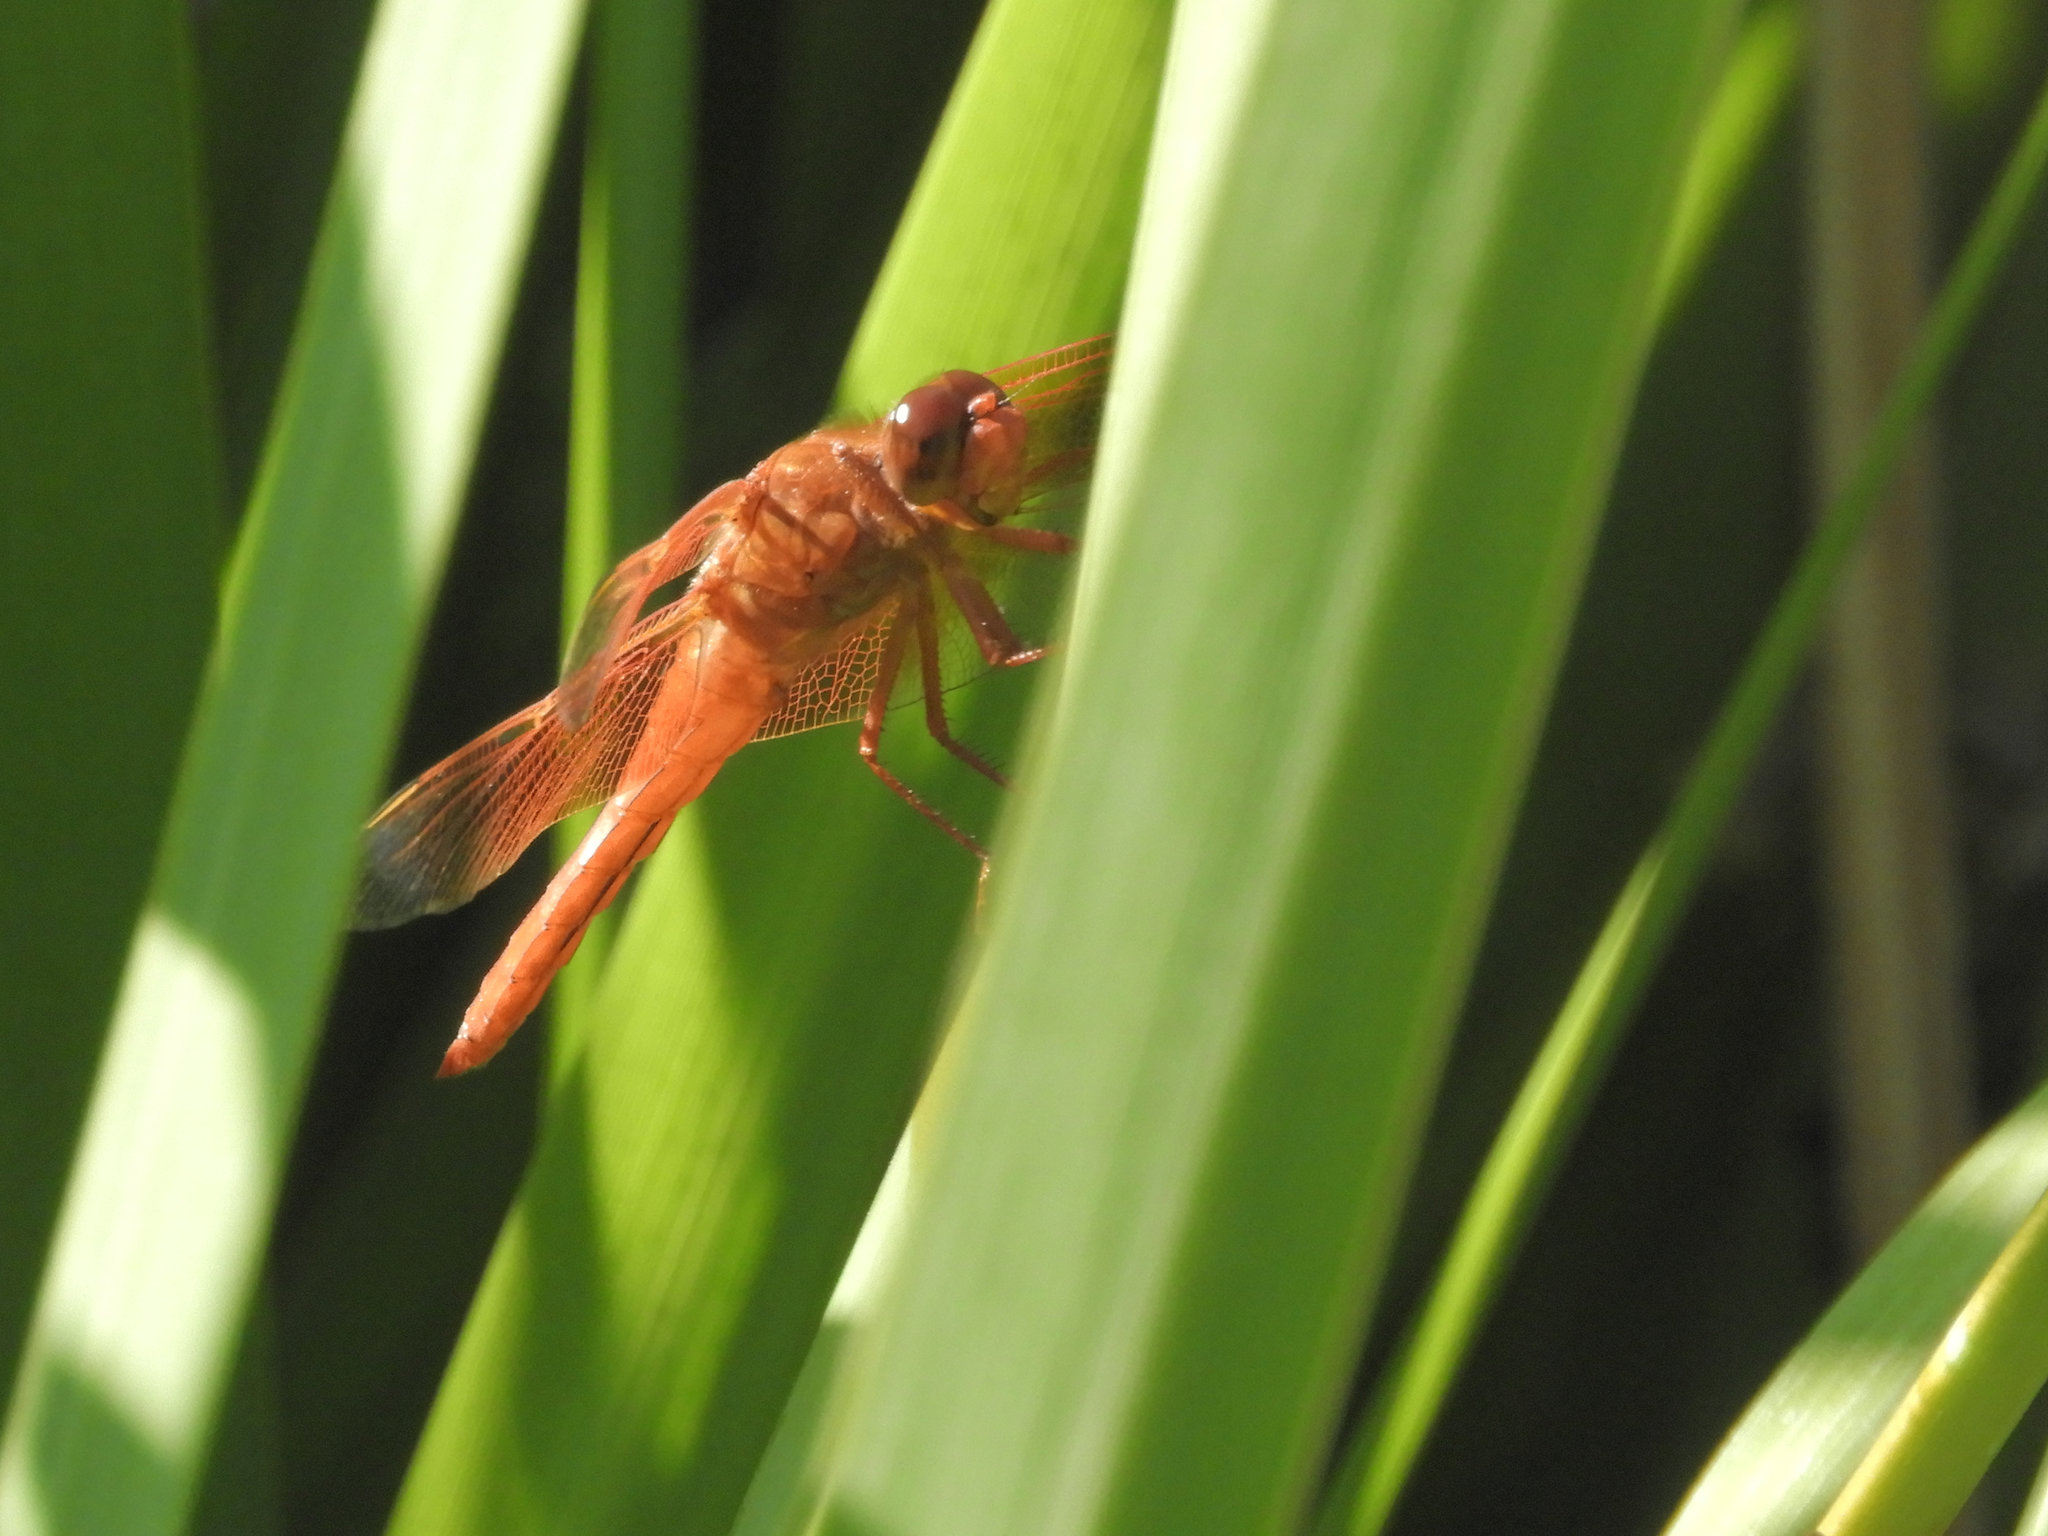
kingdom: Animalia
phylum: Arthropoda
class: Insecta
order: Odonata
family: Libellulidae
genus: Libellula
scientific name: Libellula saturata
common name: Flame skimmer
